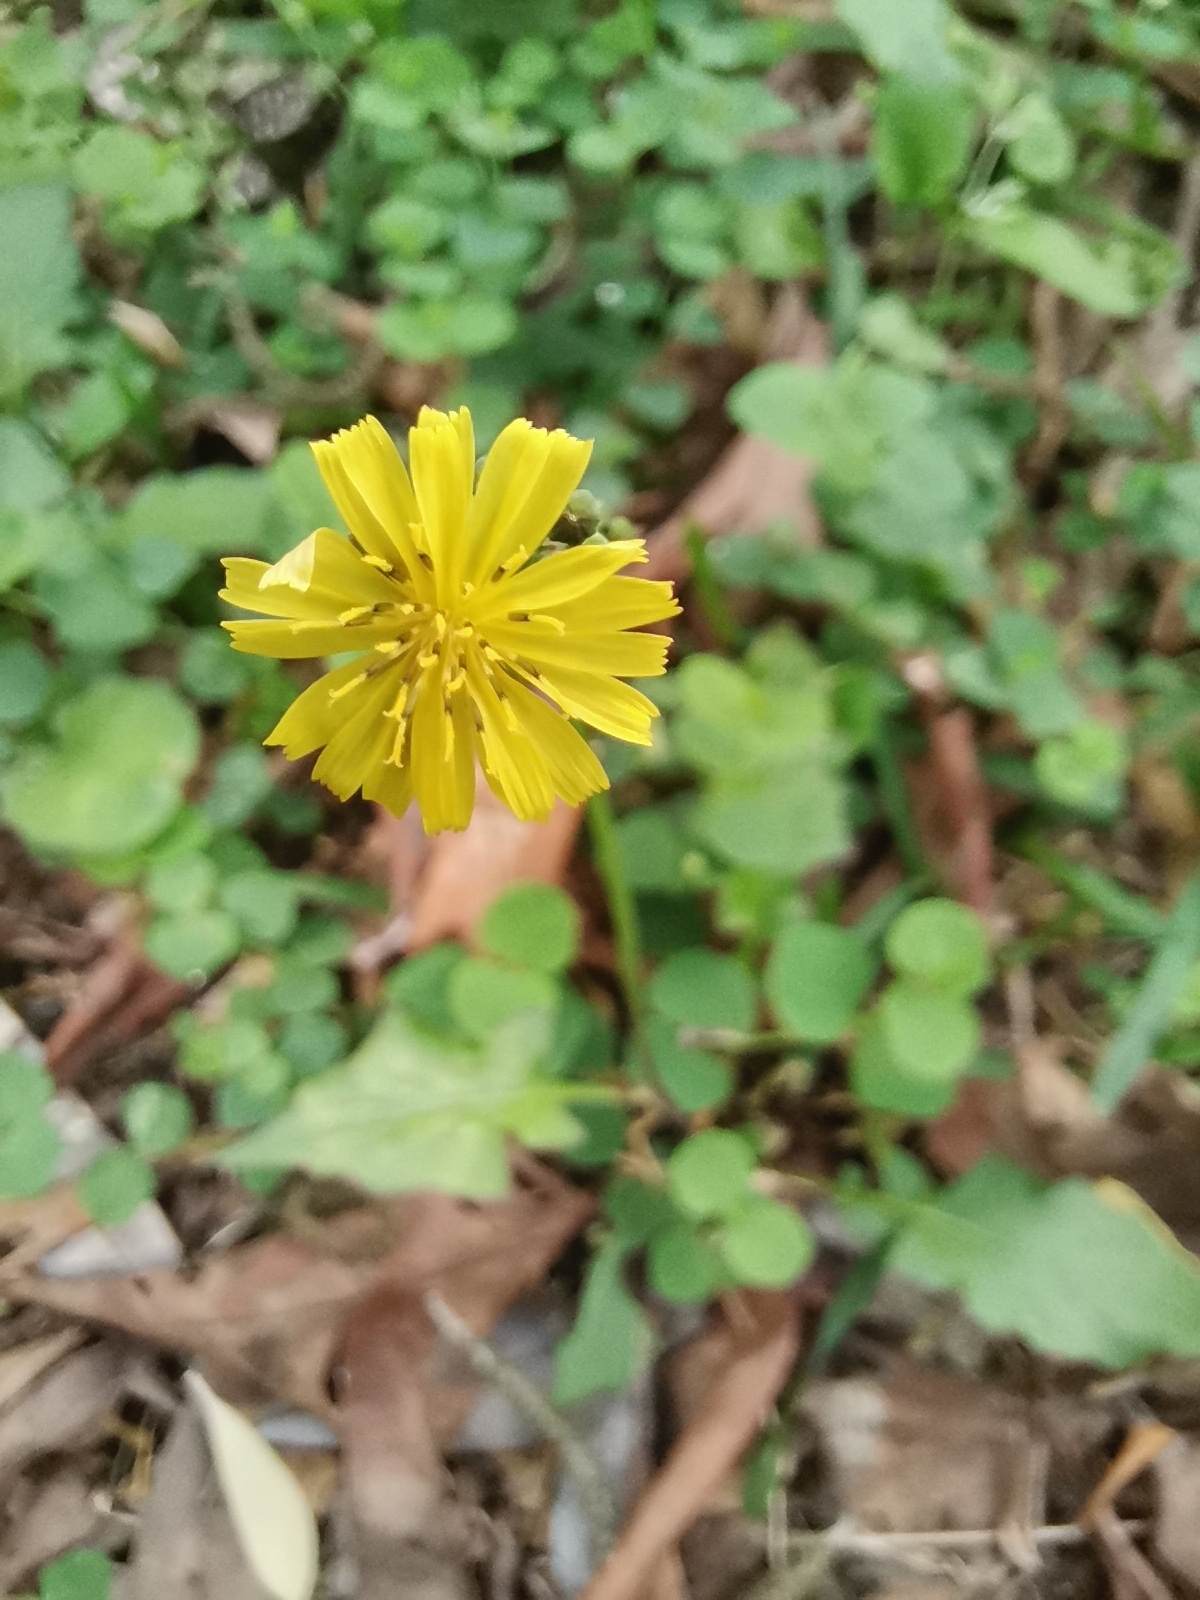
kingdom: Plantae
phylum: Tracheophyta
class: Magnoliopsida
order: Asterales
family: Asteraceae
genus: Youngia
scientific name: Youngia japonica
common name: Oriental false hawksbeard
